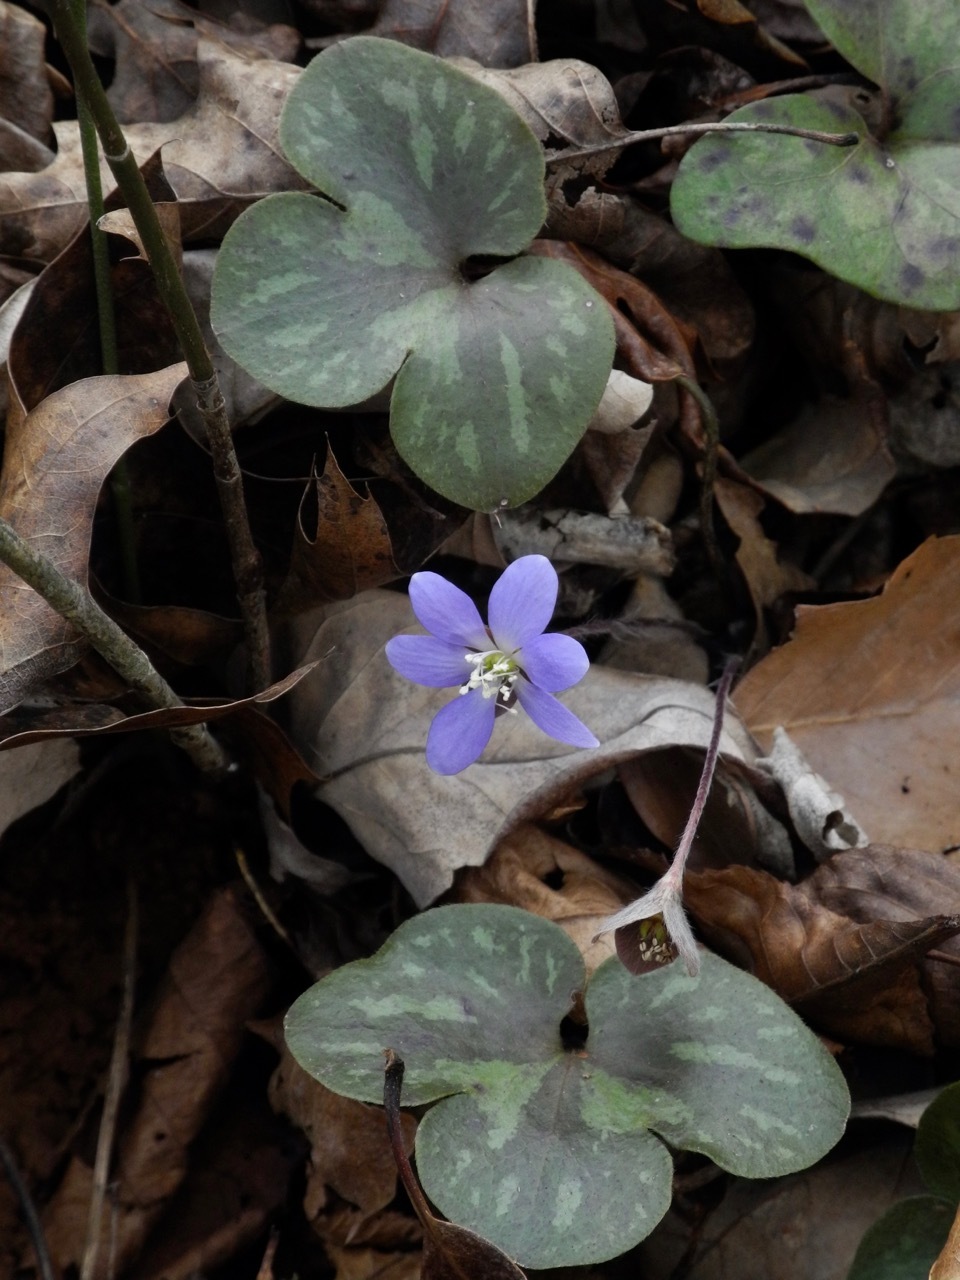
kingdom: Plantae
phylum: Tracheophyta
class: Magnoliopsida
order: Ranunculales
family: Ranunculaceae
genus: Hepatica
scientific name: Hepatica americana
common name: American hepatica
